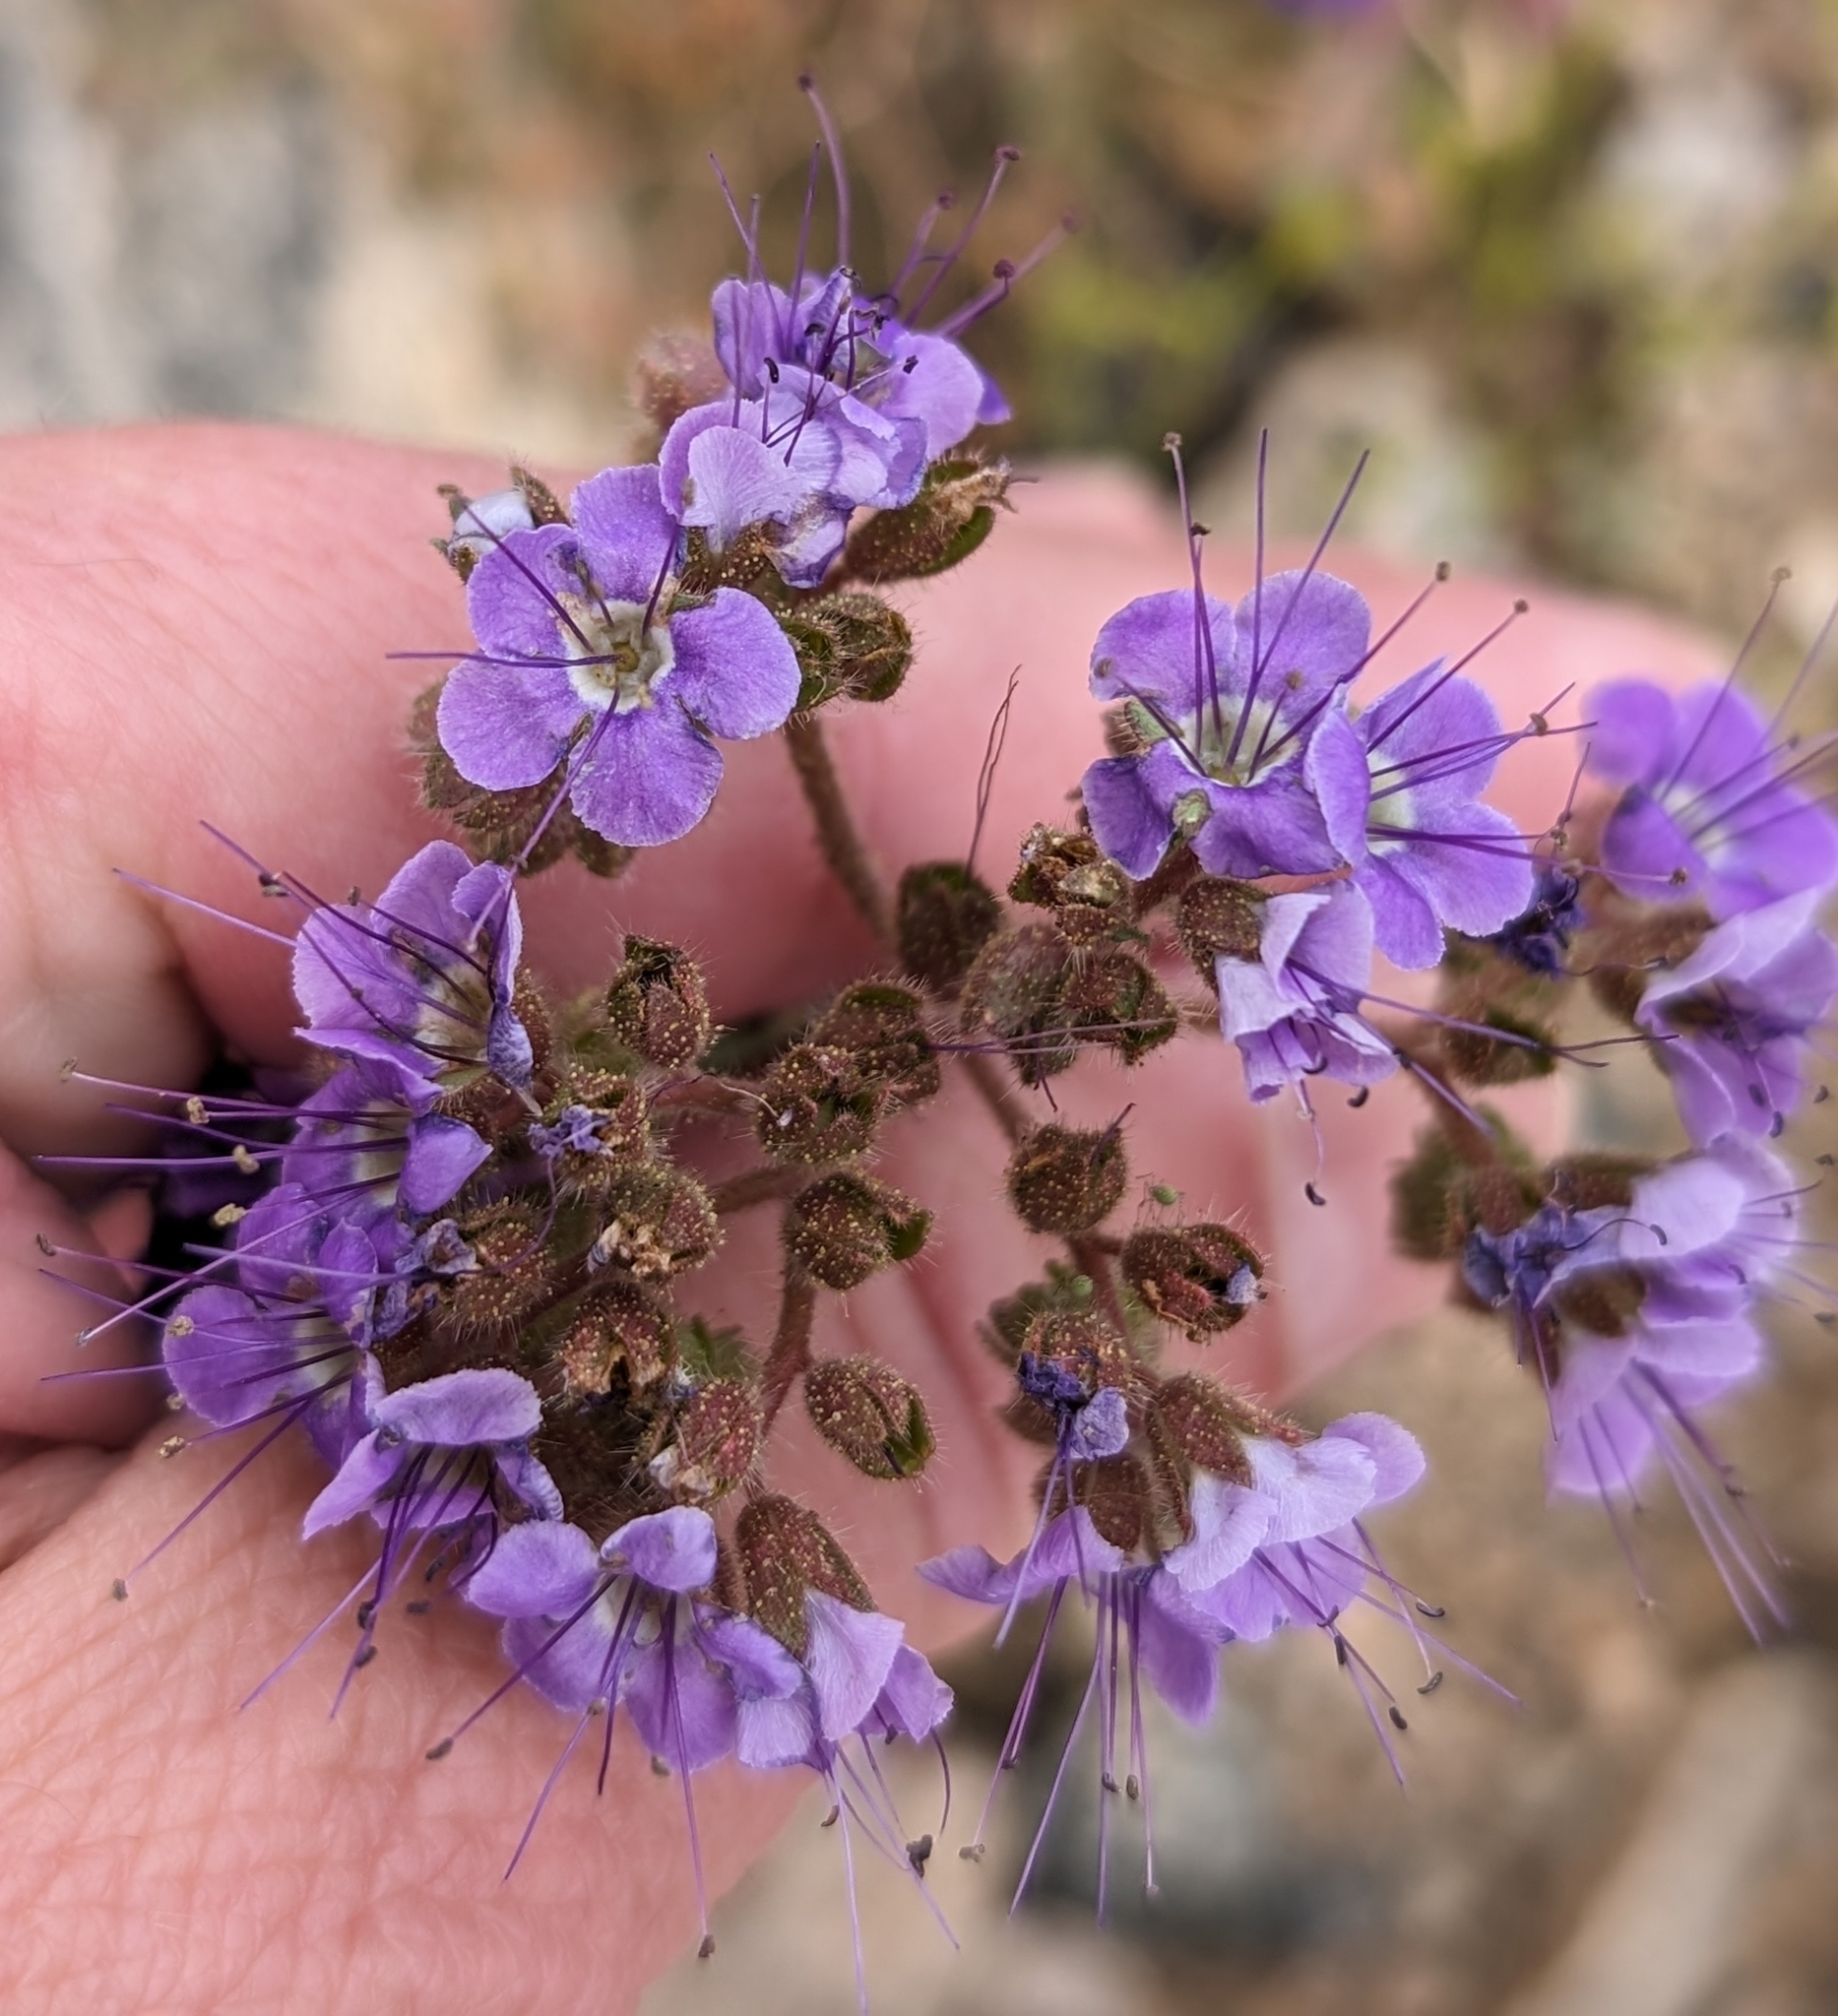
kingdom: Plantae
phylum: Tracheophyta
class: Magnoliopsida
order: Boraginales
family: Hydrophyllaceae
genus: Phacelia
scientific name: Phacelia crenulata
